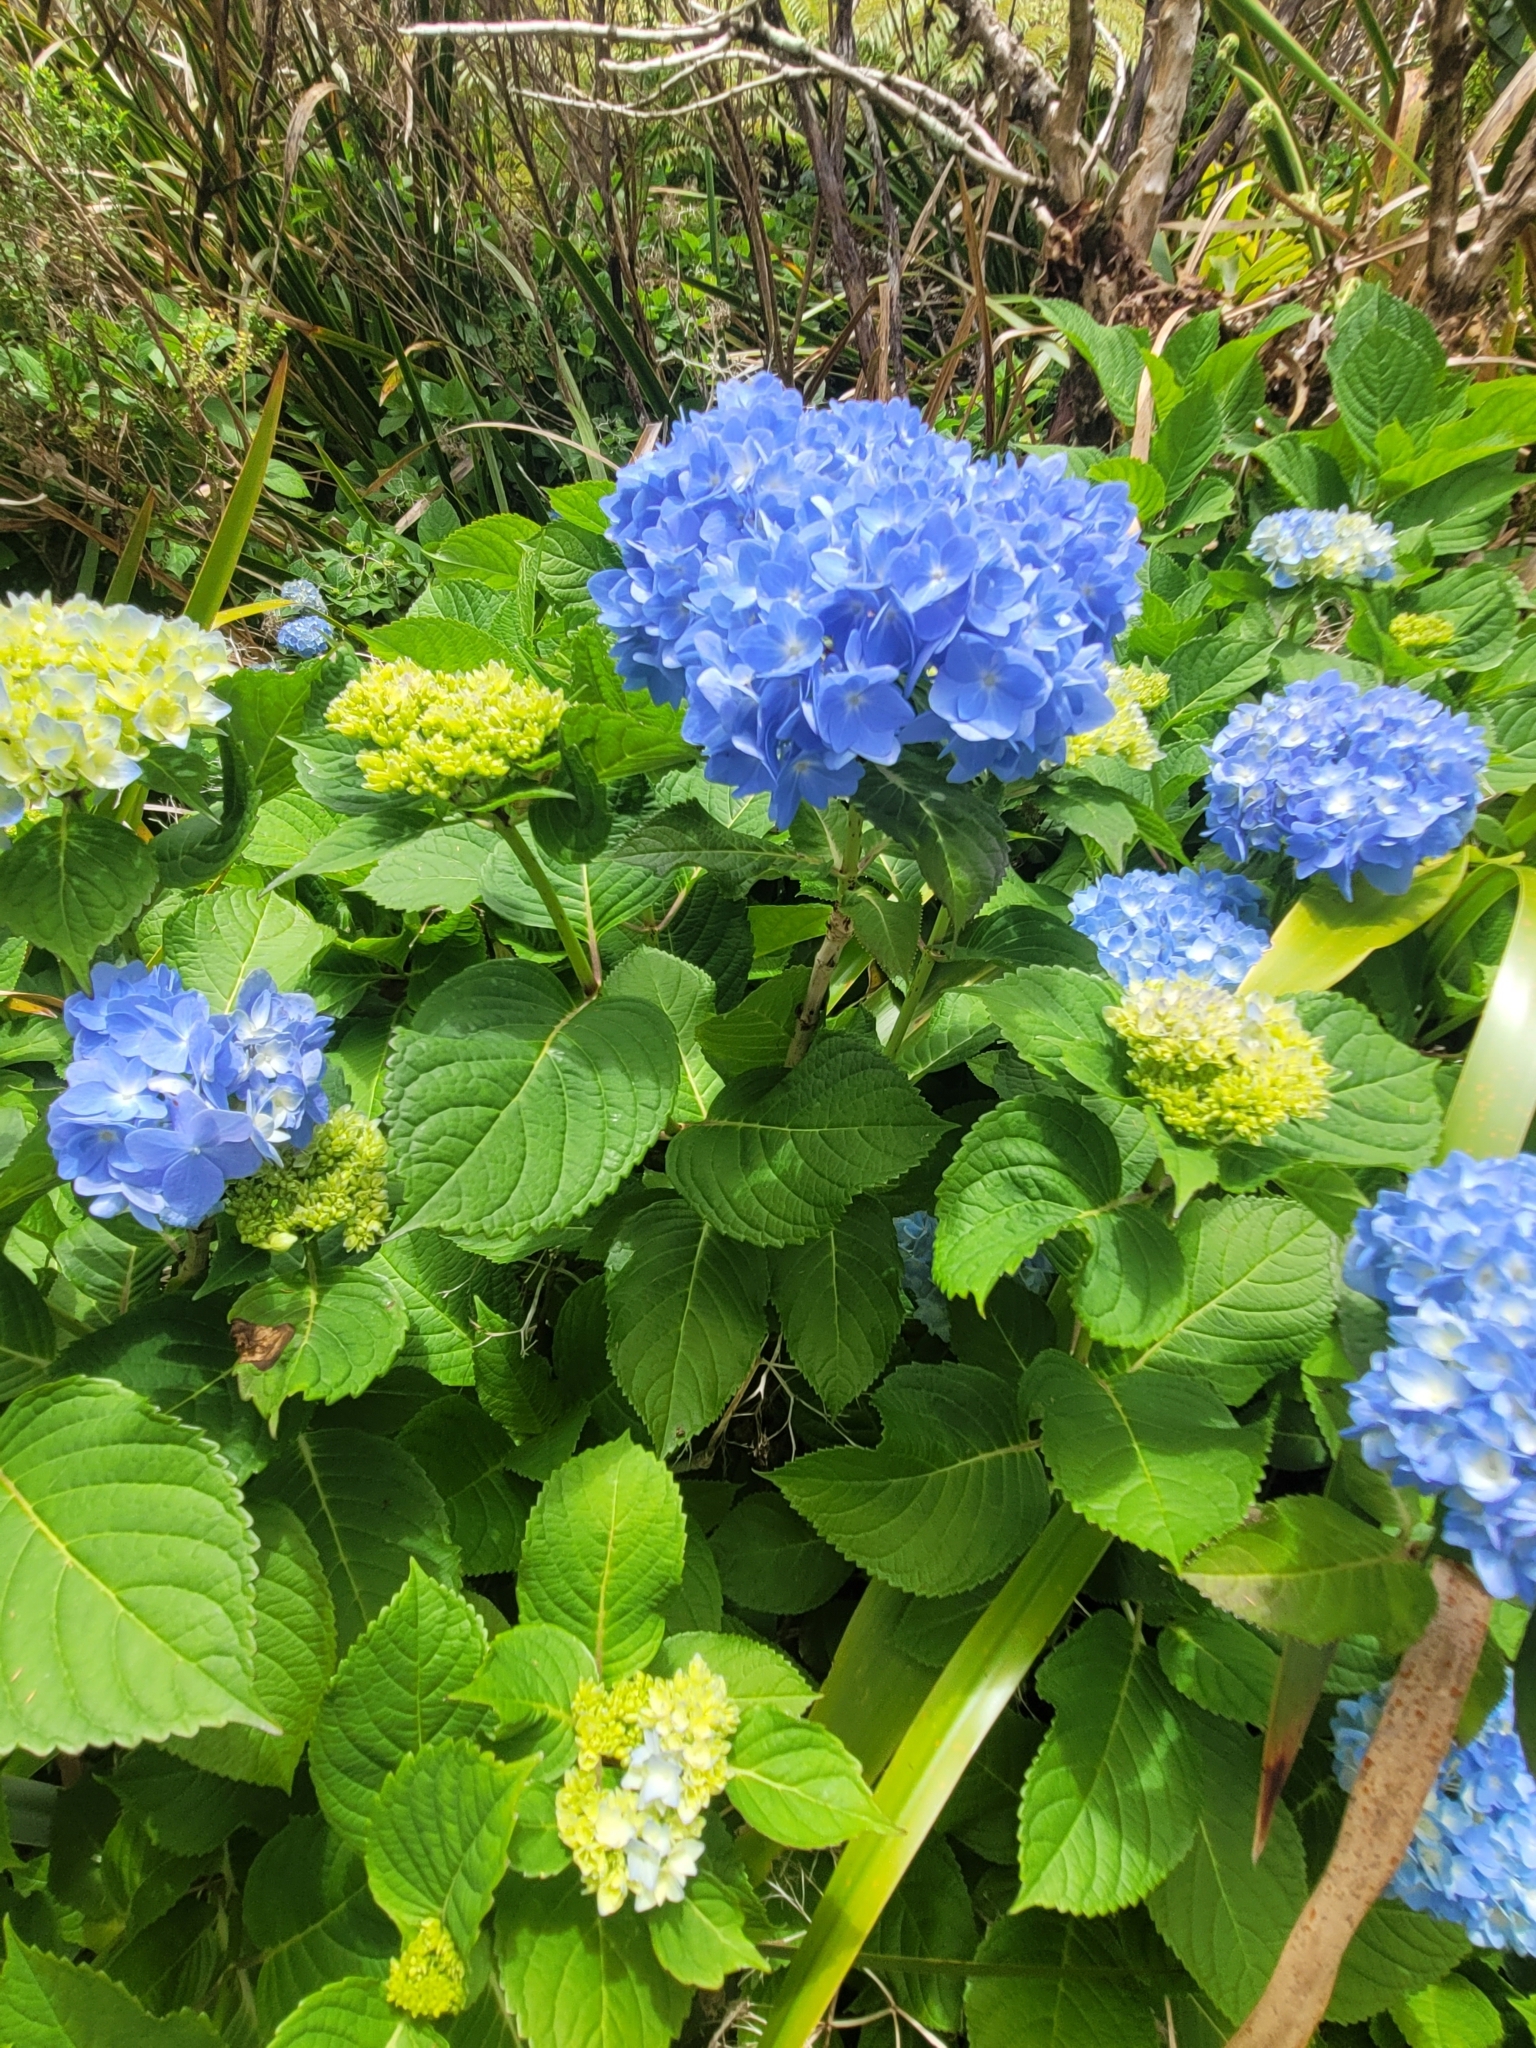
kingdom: Plantae
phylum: Tracheophyta
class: Magnoliopsida
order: Cornales
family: Hydrangeaceae
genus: Hydrangea
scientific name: Hydrangea macrophylla
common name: Hydrangea
